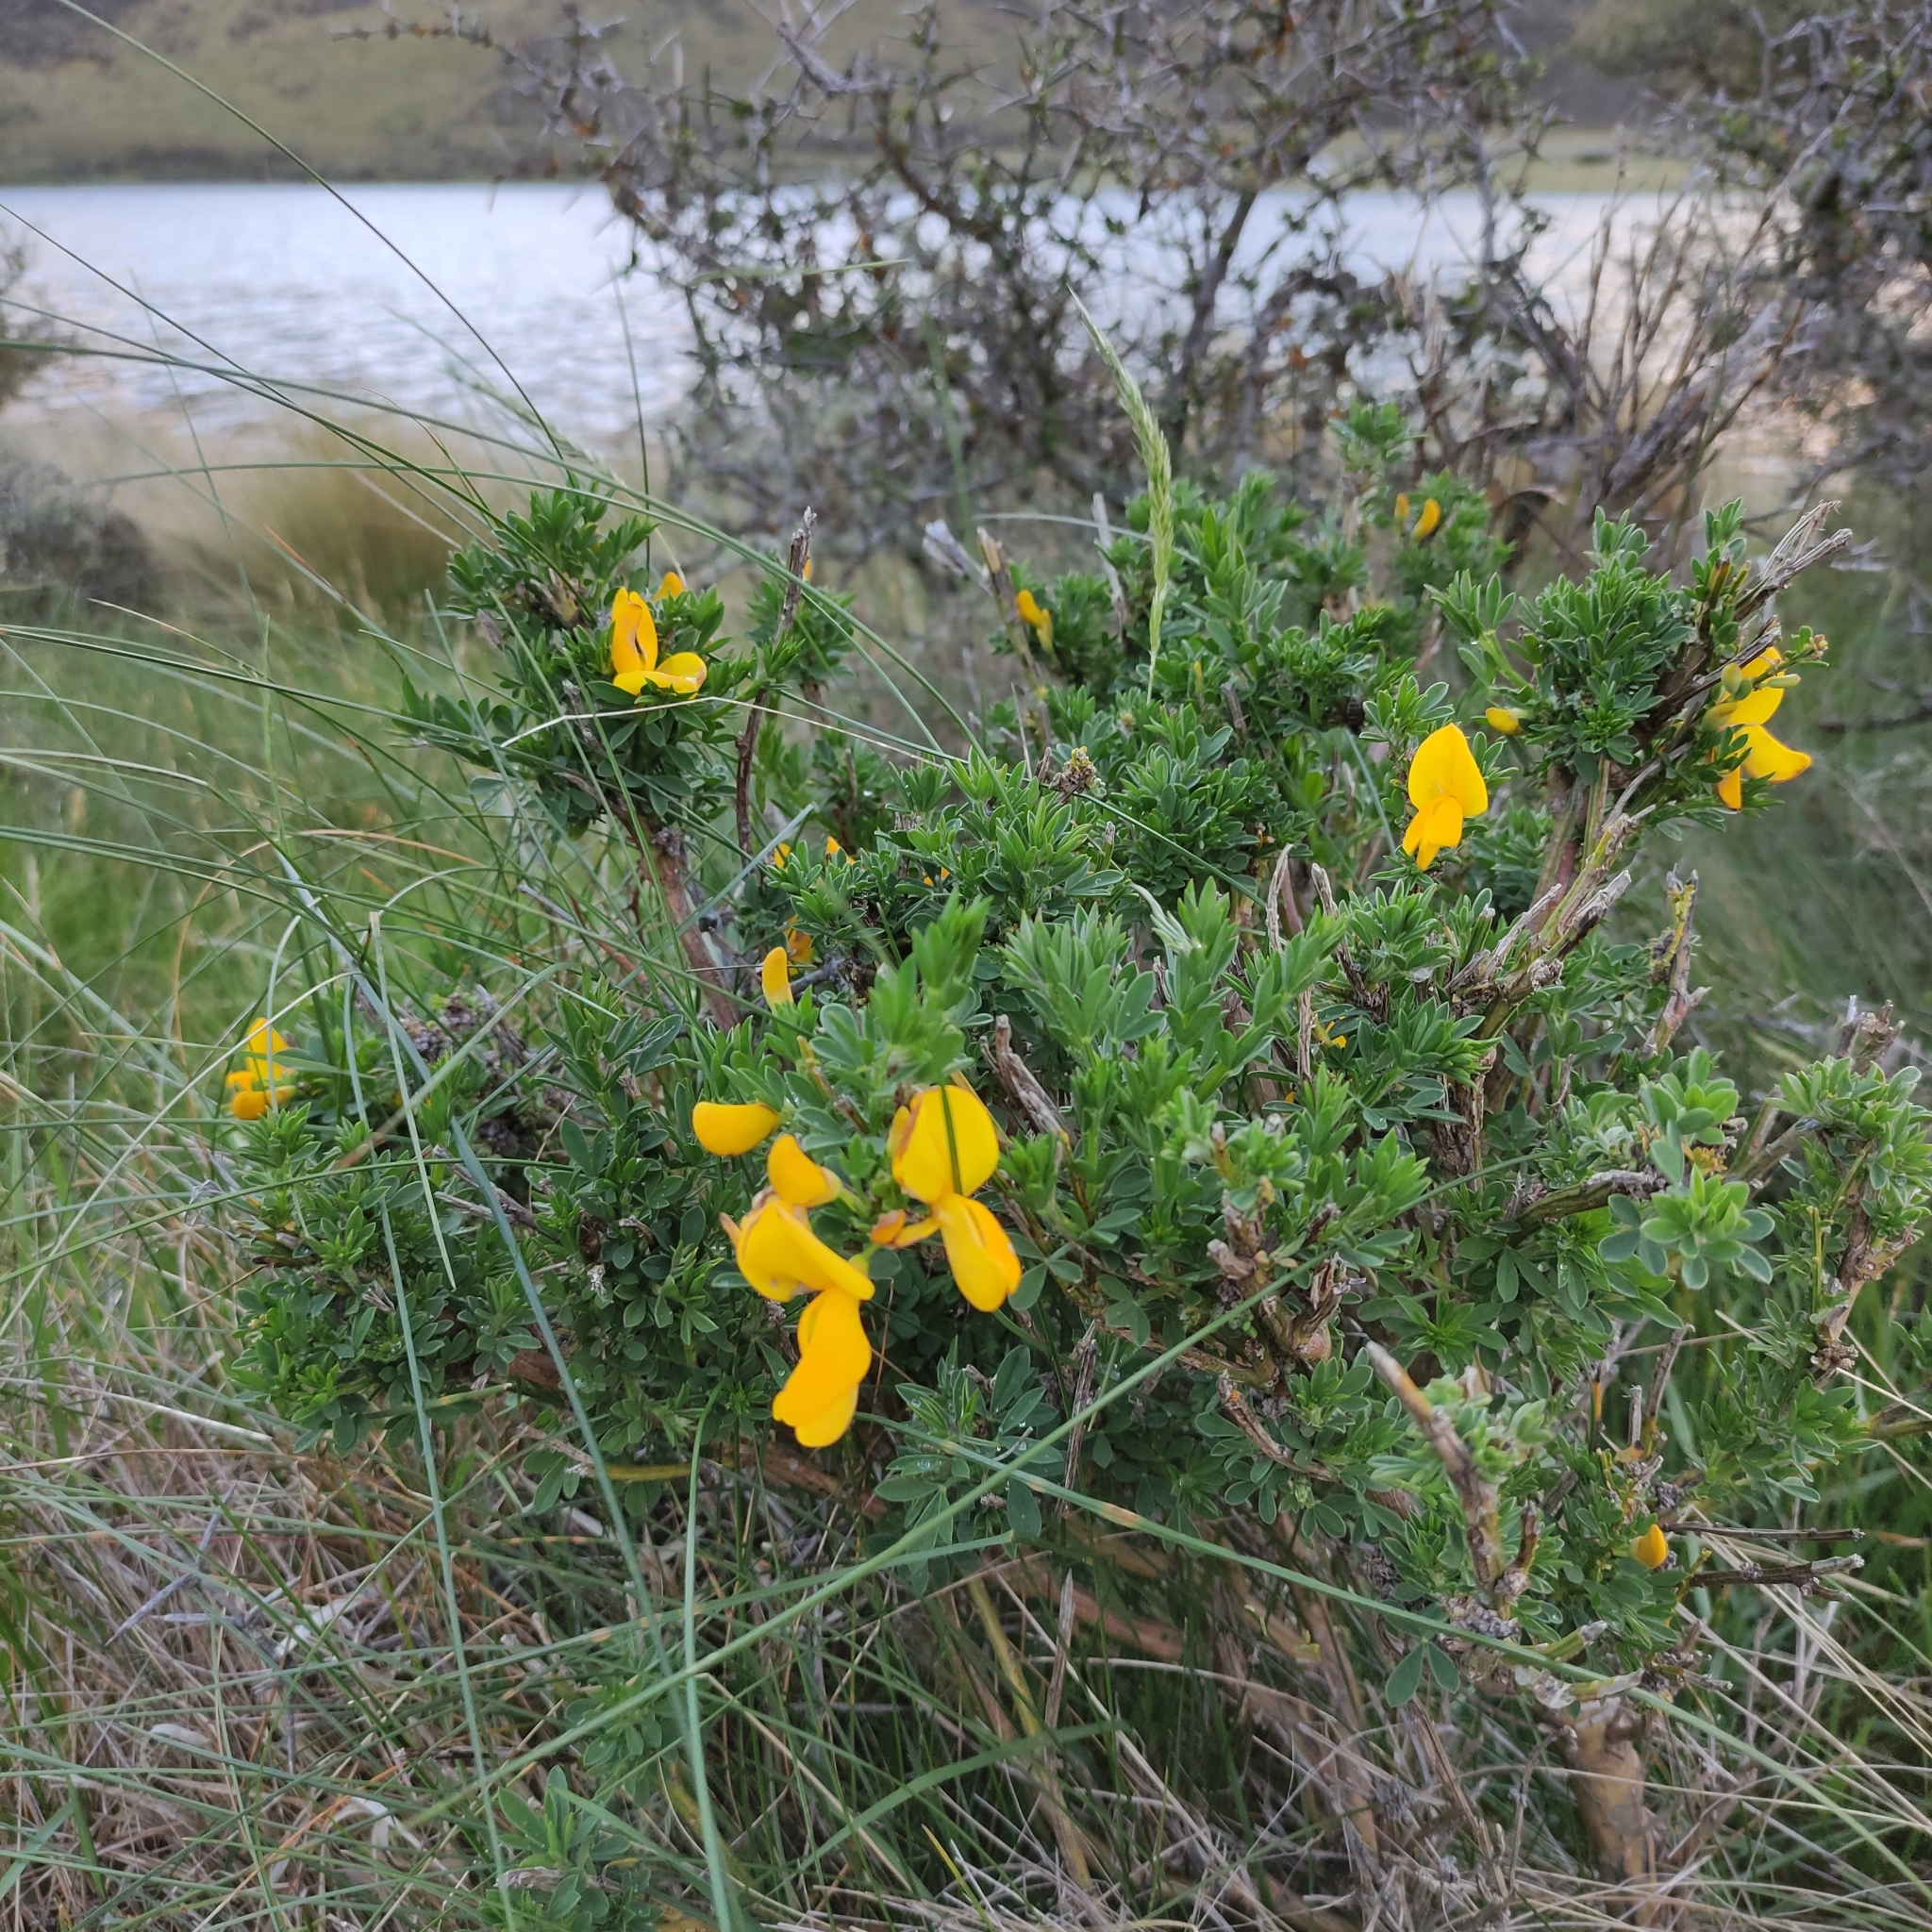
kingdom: Plantae
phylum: Tracheophyta
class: Magnoliopsida
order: Fabales
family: Fabaceae
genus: Cytisus
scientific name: Cytisus scoparius
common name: Scotch broom
